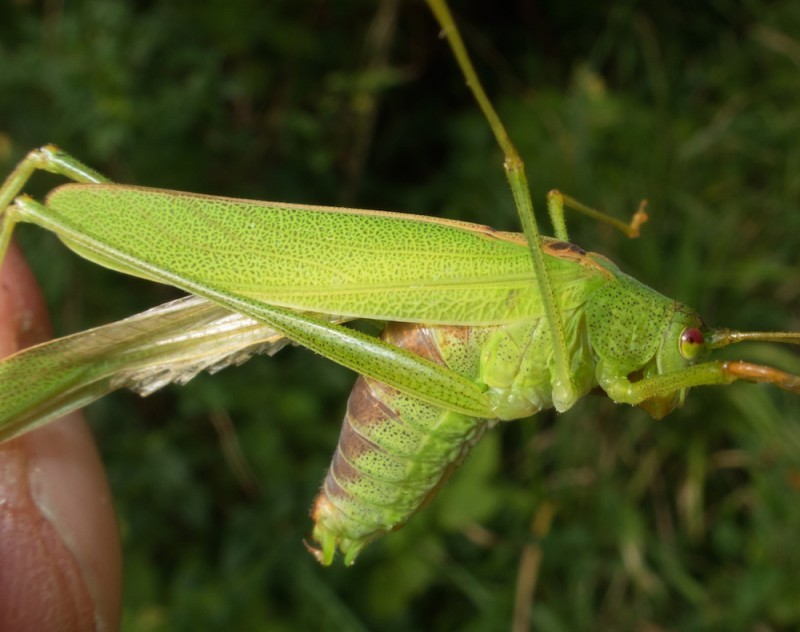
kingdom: Animalia
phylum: Arthropoda
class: Insecta
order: Orthoptera
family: Tettigoniidae
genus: Phaneroptera
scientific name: Phaneroptera falcata
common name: Sickle-bearing bush-cricket
